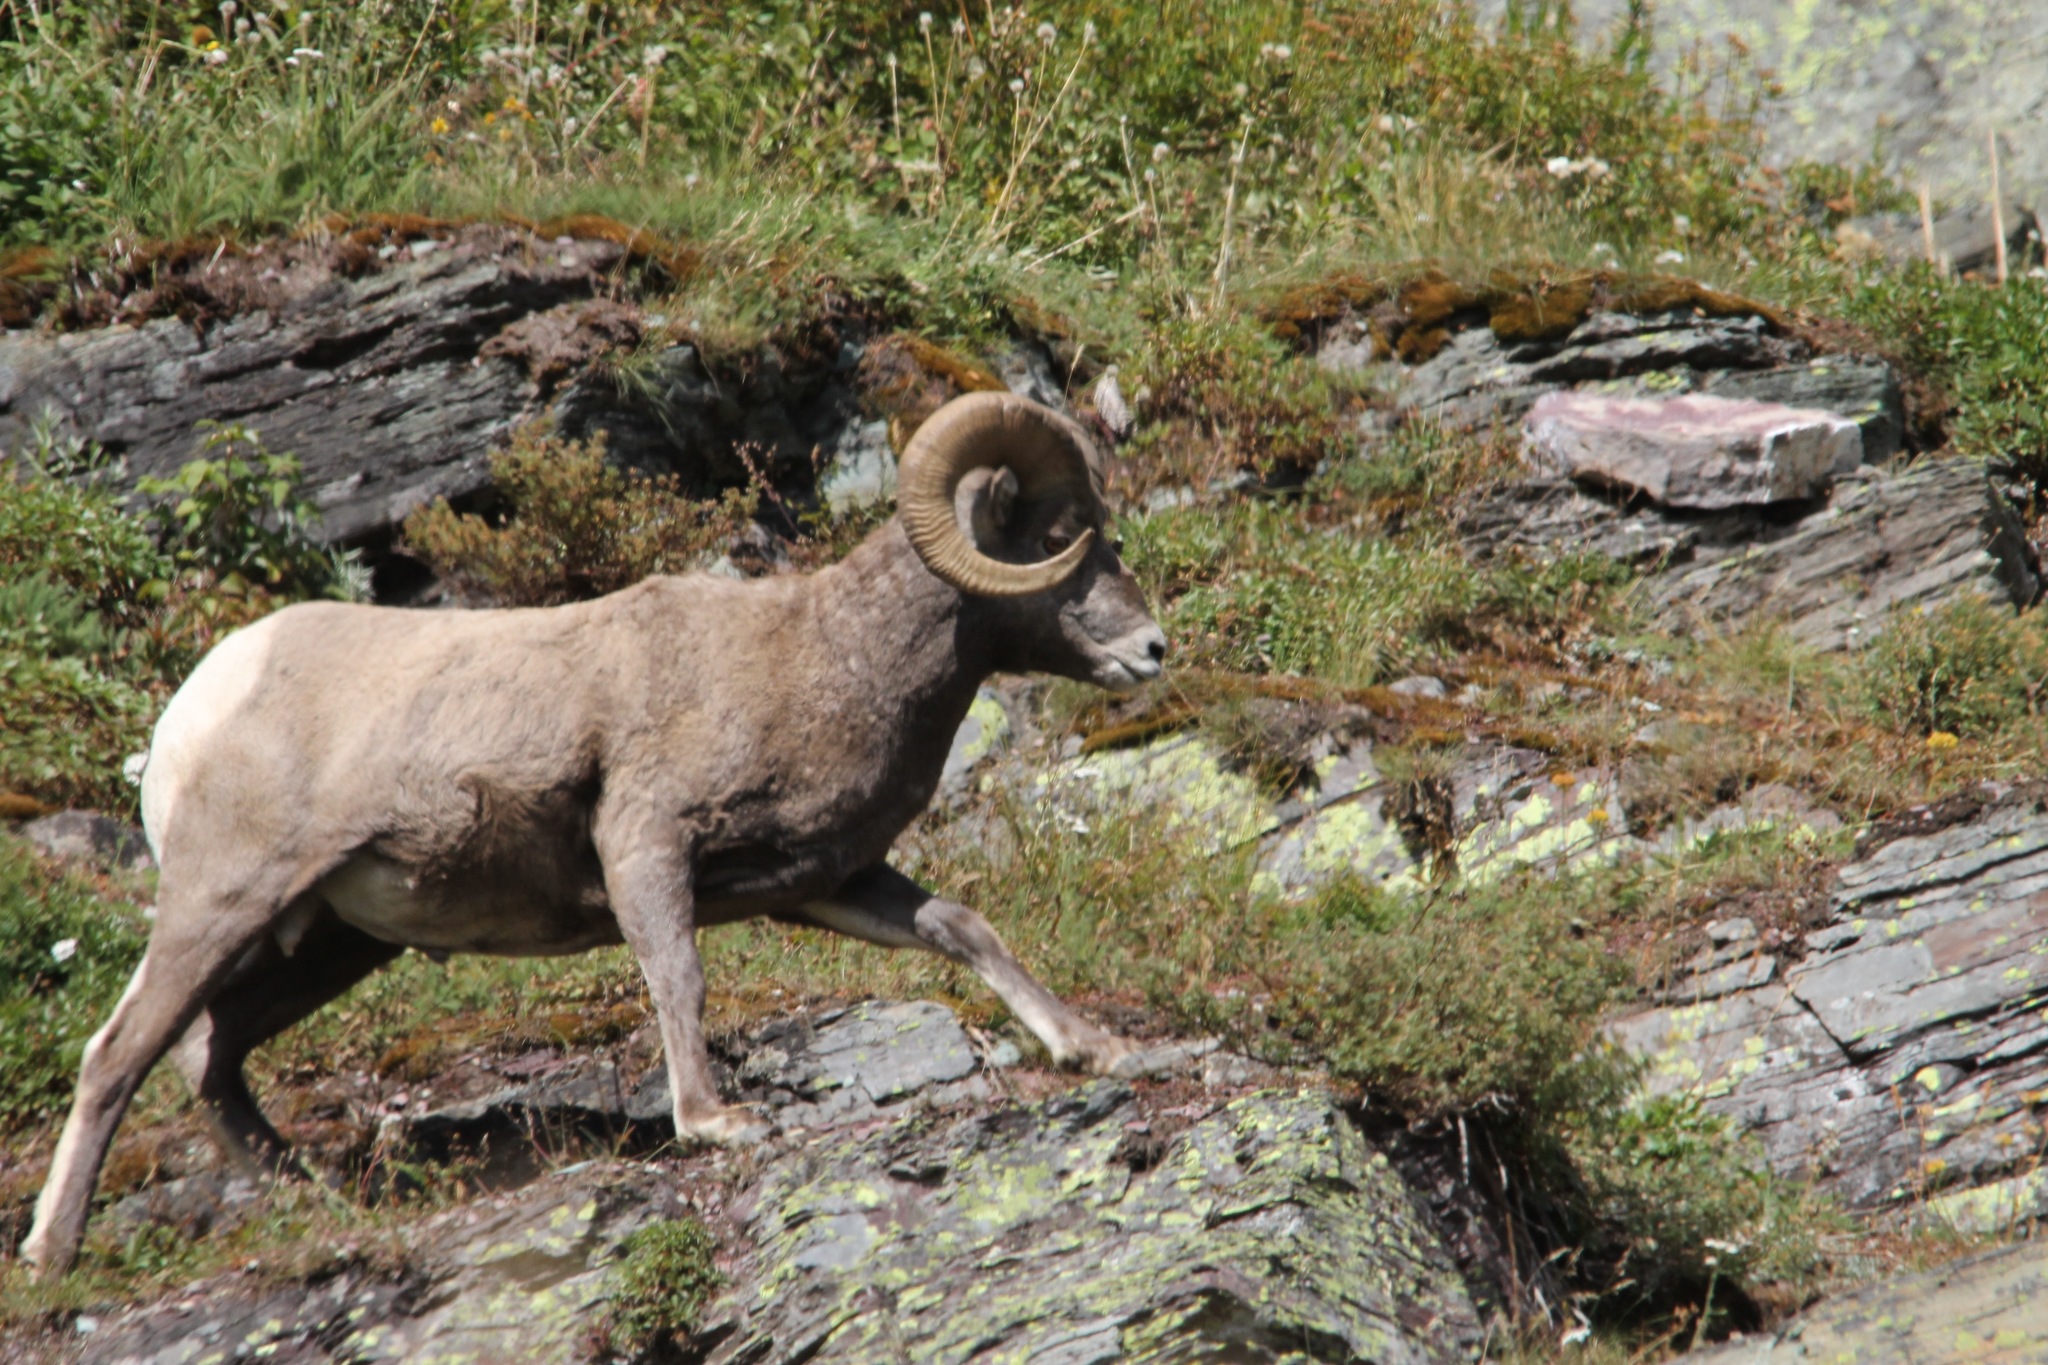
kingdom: Animalia
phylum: Chordata
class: Mammalia
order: Artiodactyla
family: Bovidae
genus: Ovis
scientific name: Ovis canadensis
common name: Bighorn sheep
